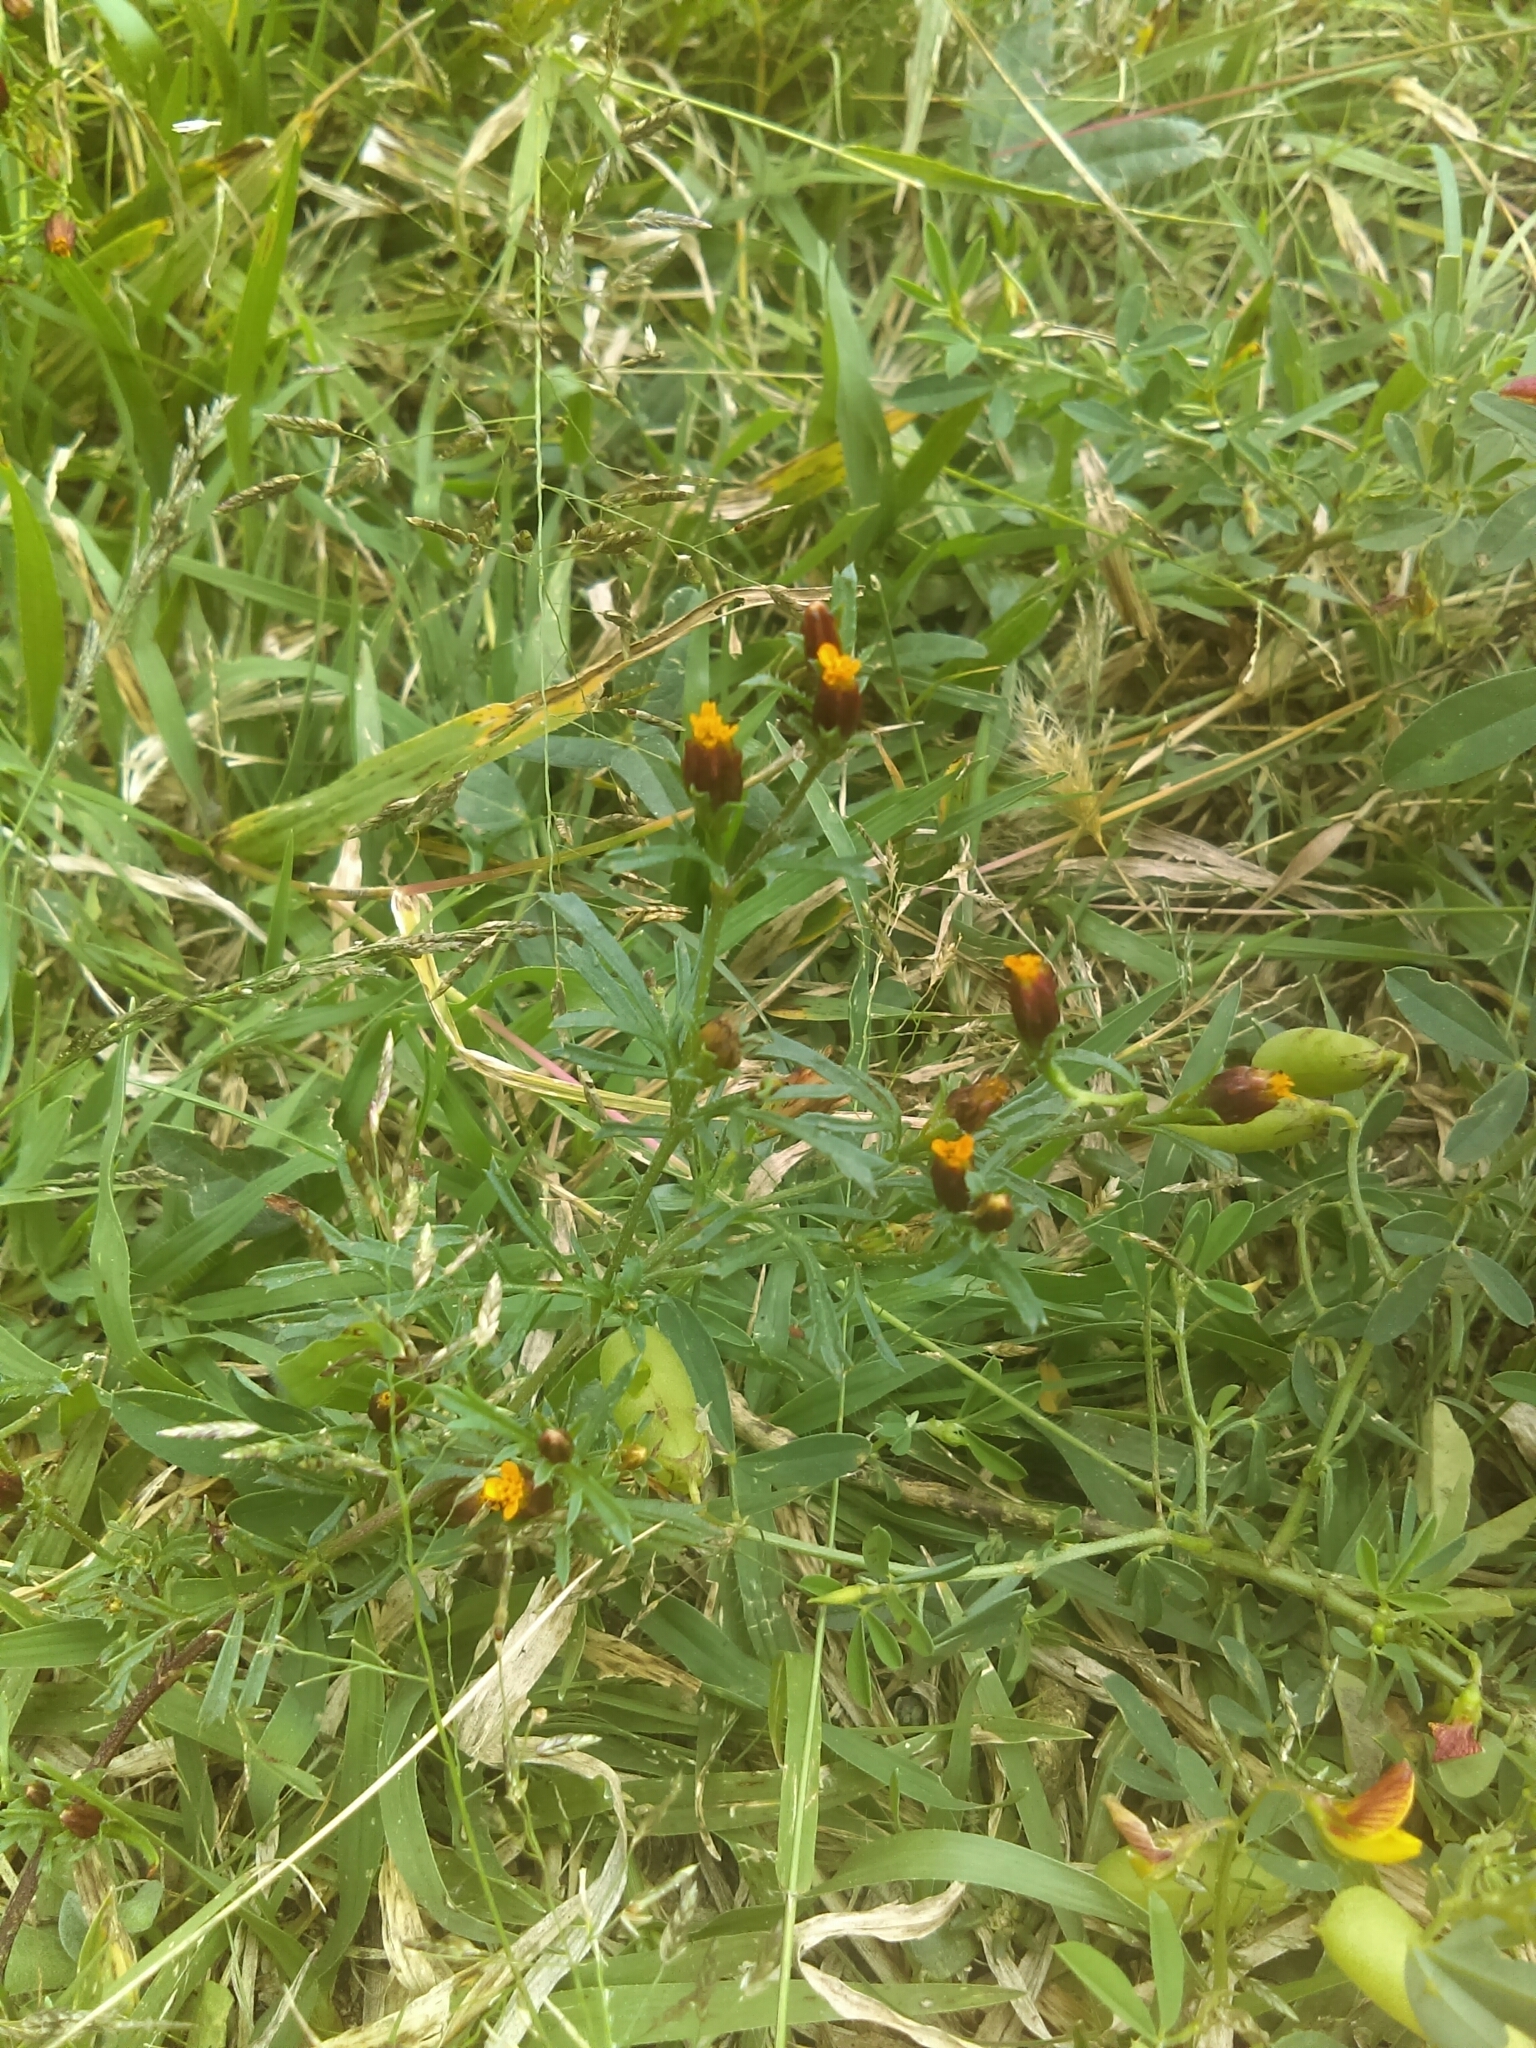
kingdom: Plantae
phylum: Tracheophyta
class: Magnoliopsida
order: Asterales
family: Asteraceae
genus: Dyssodia
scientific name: Dyssodia papposa
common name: Dogweed
